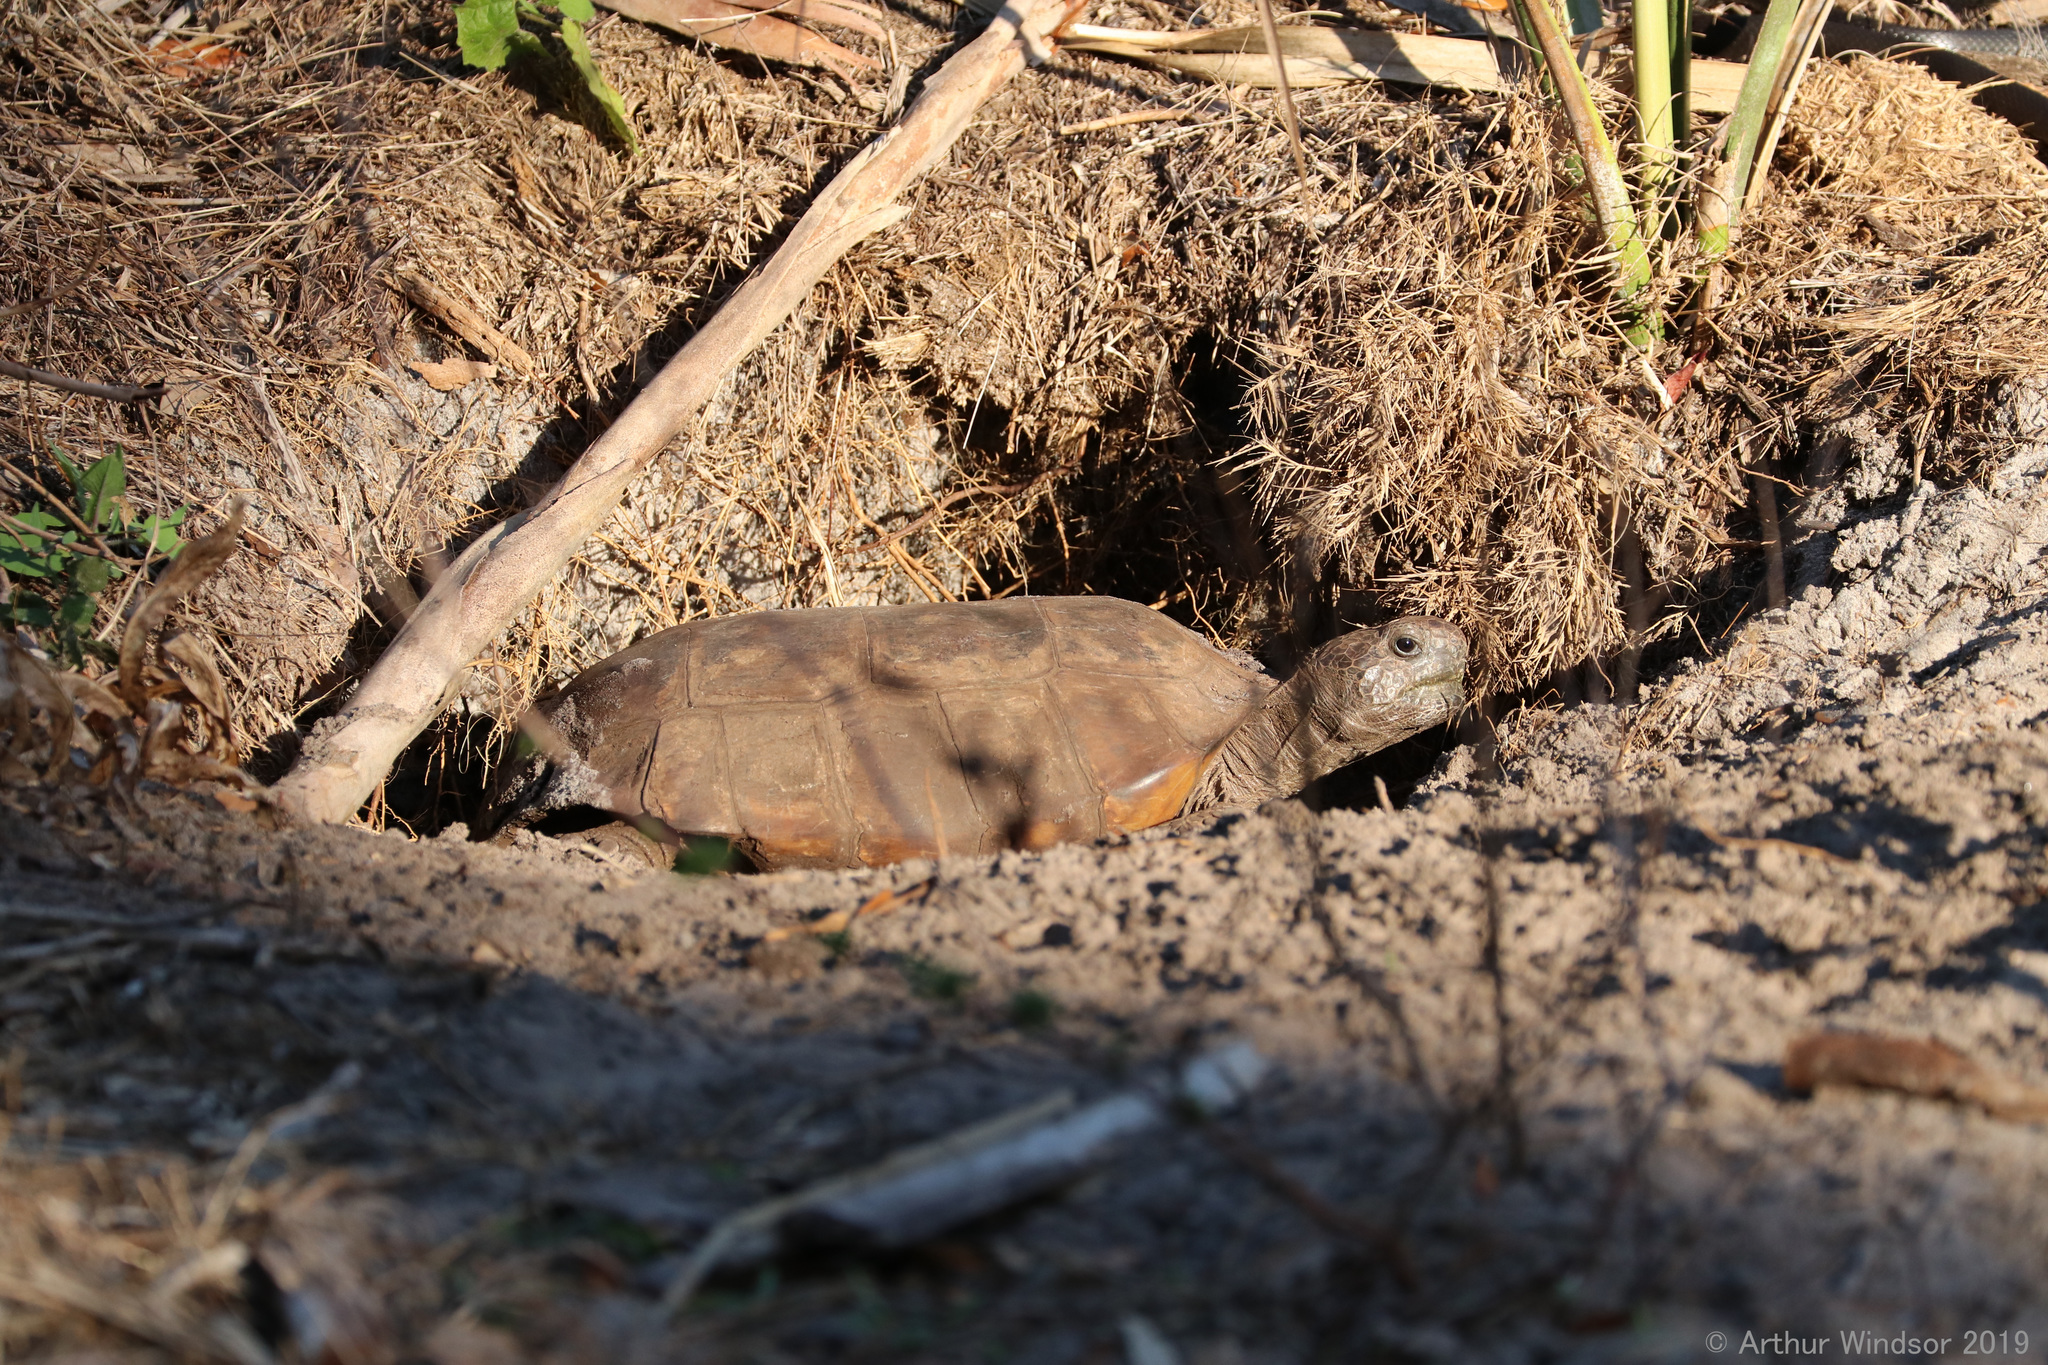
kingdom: Animalia
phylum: Chordata
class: Testudines
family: Testudinidae
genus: Gopherus
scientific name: Gopherus polyphemus
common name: Florida gopher tortoise
